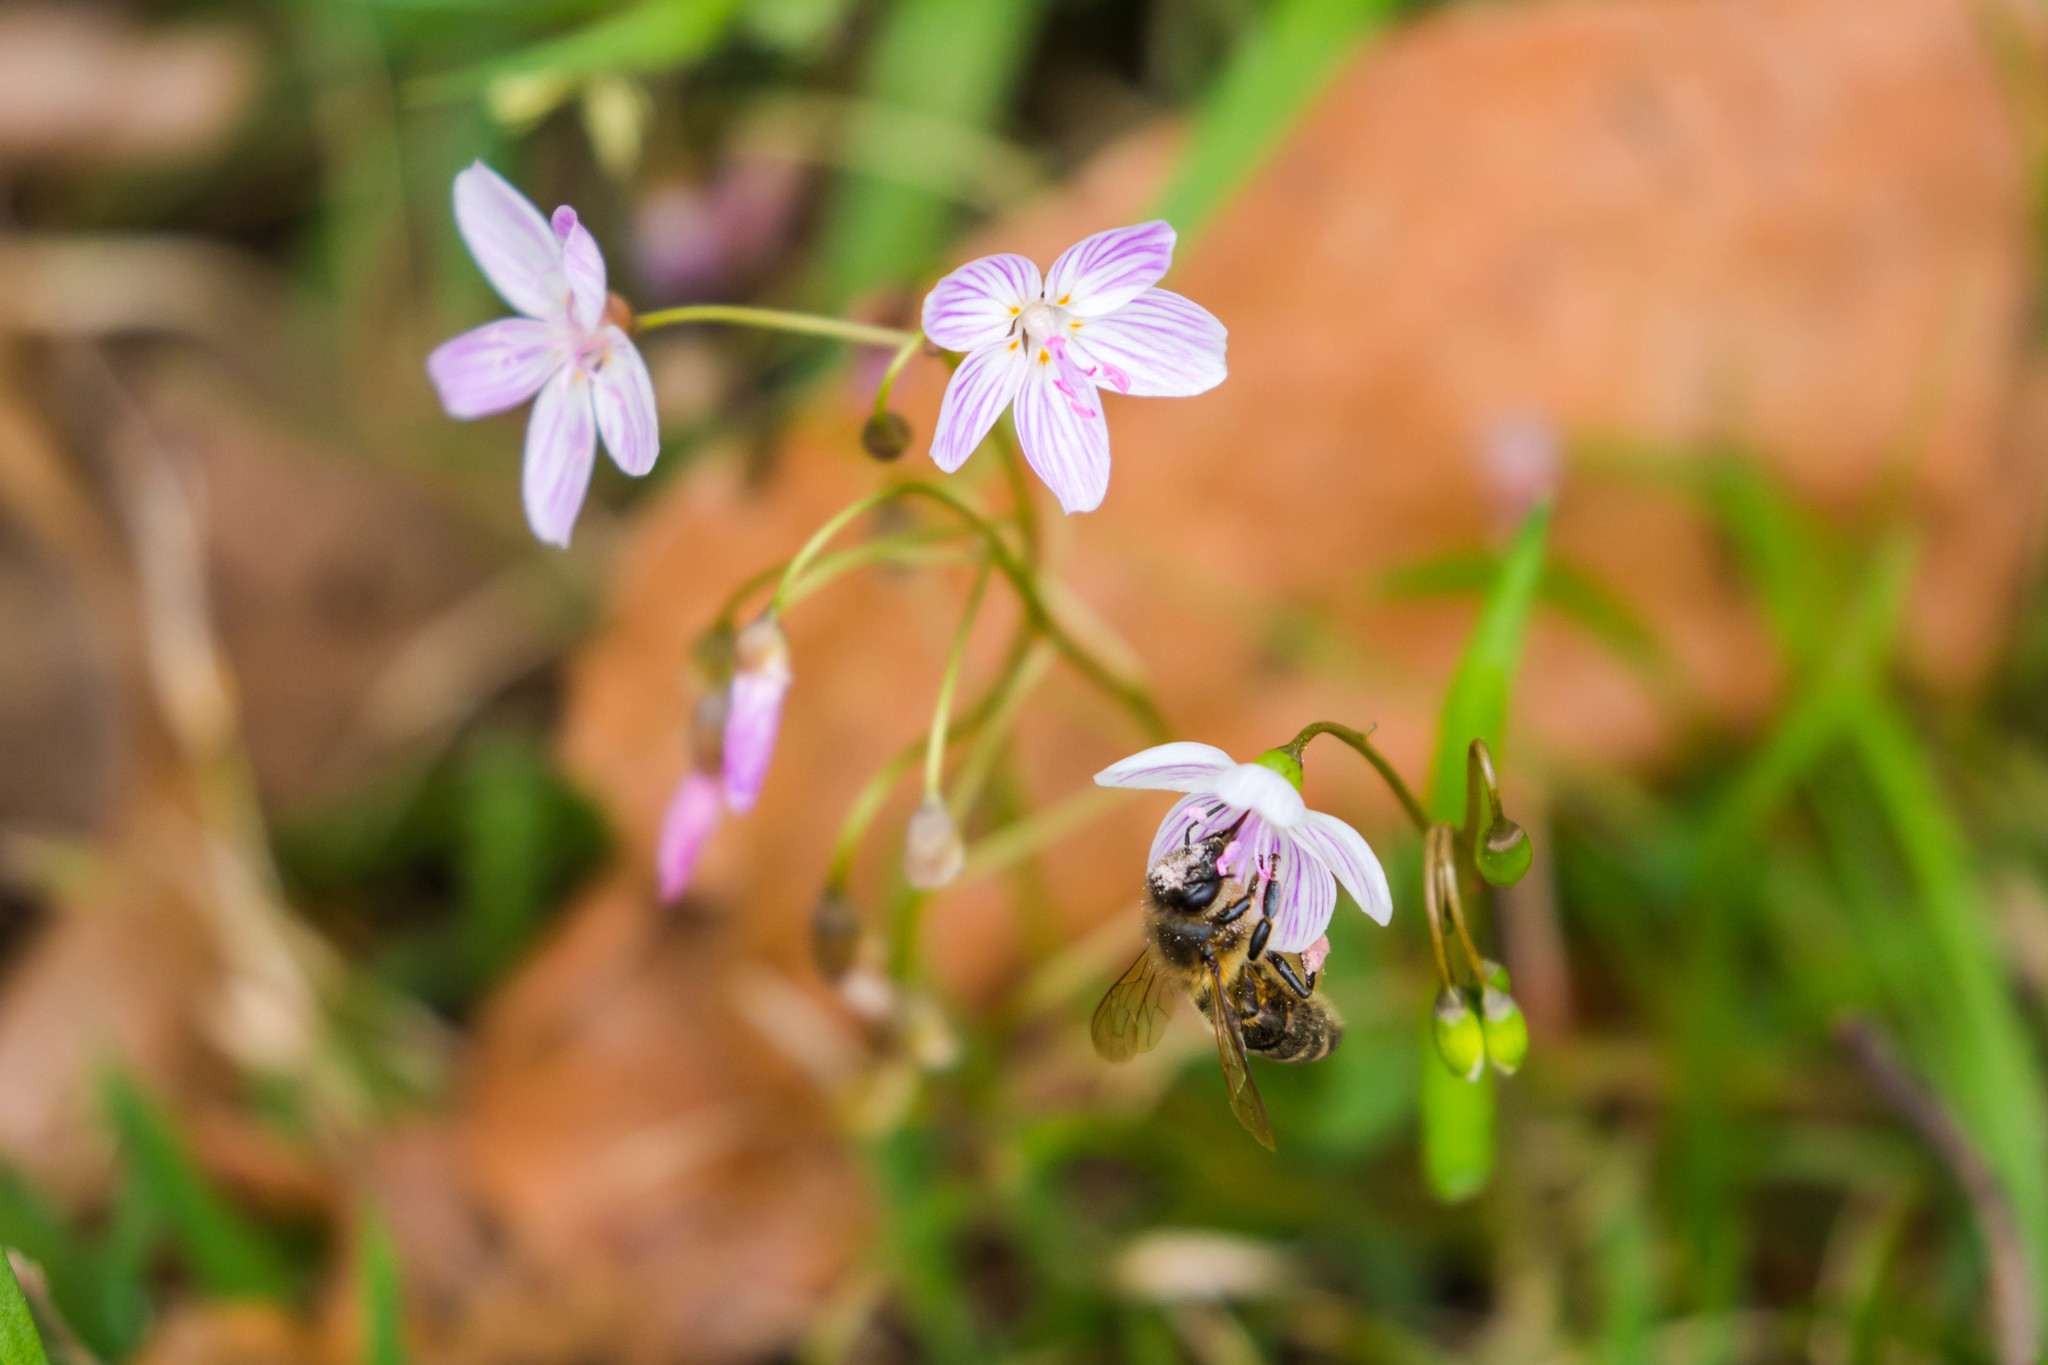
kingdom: Animalia
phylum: Arthropoda
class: Insecta
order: Hymenoptera
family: Apidae
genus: Apis
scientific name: Apis mellifera
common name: Honey bee
